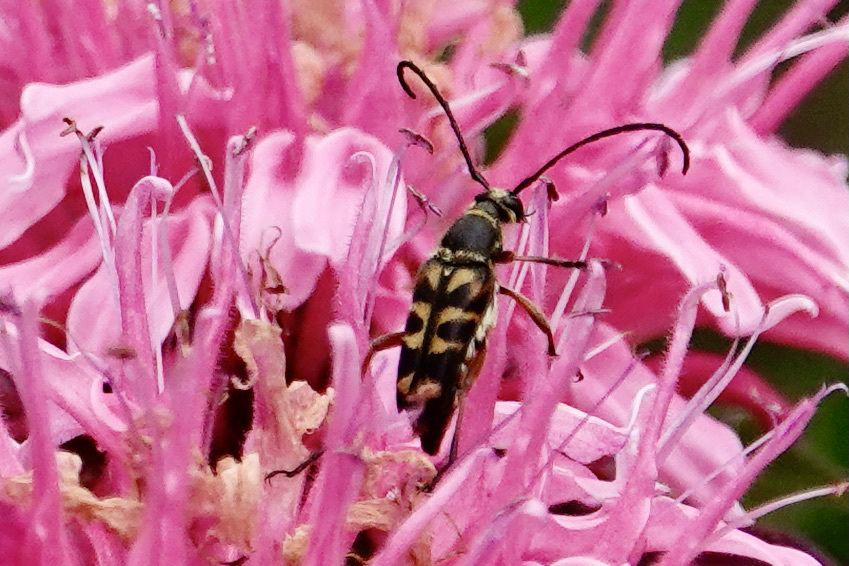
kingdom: Animalia
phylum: Arthropoda
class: Insecta
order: Coleoptera
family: Cerambycidae
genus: Typocerus
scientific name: Typocerus zebra
